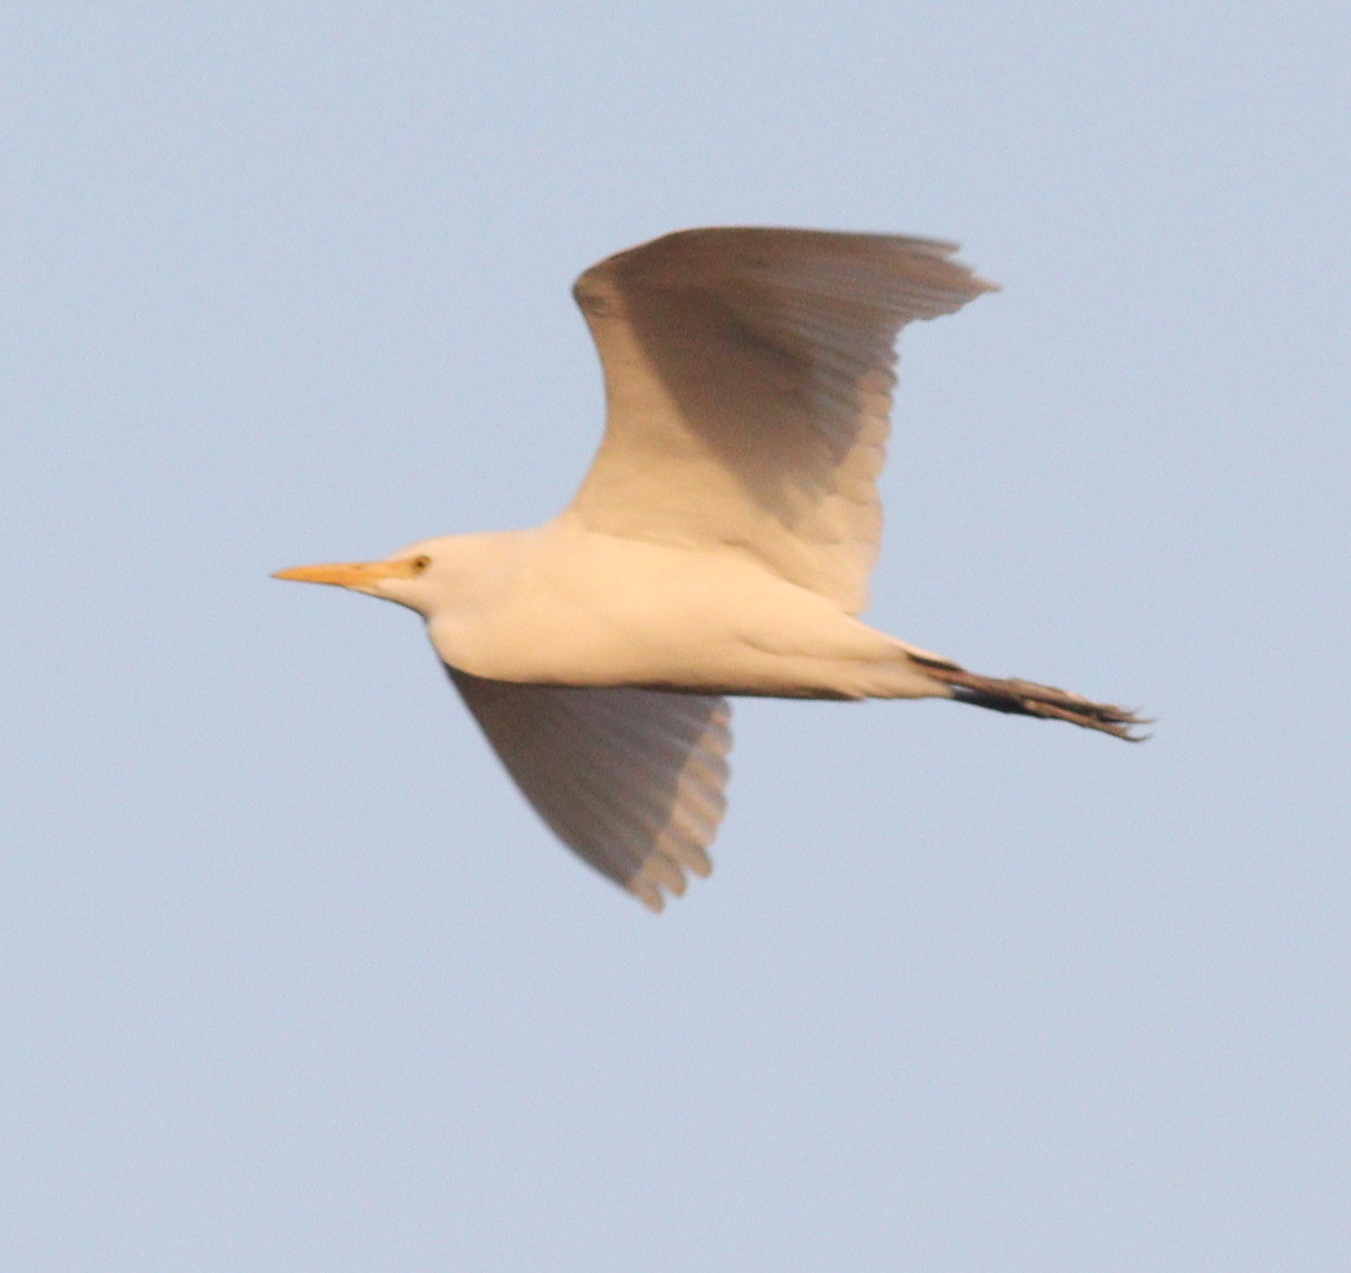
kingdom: Animalia
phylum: Chordata
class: Aves
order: Pelecaniformes
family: Ardeidae
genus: Bubulcus
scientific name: Bubulcus ibis
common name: Cattle egret
